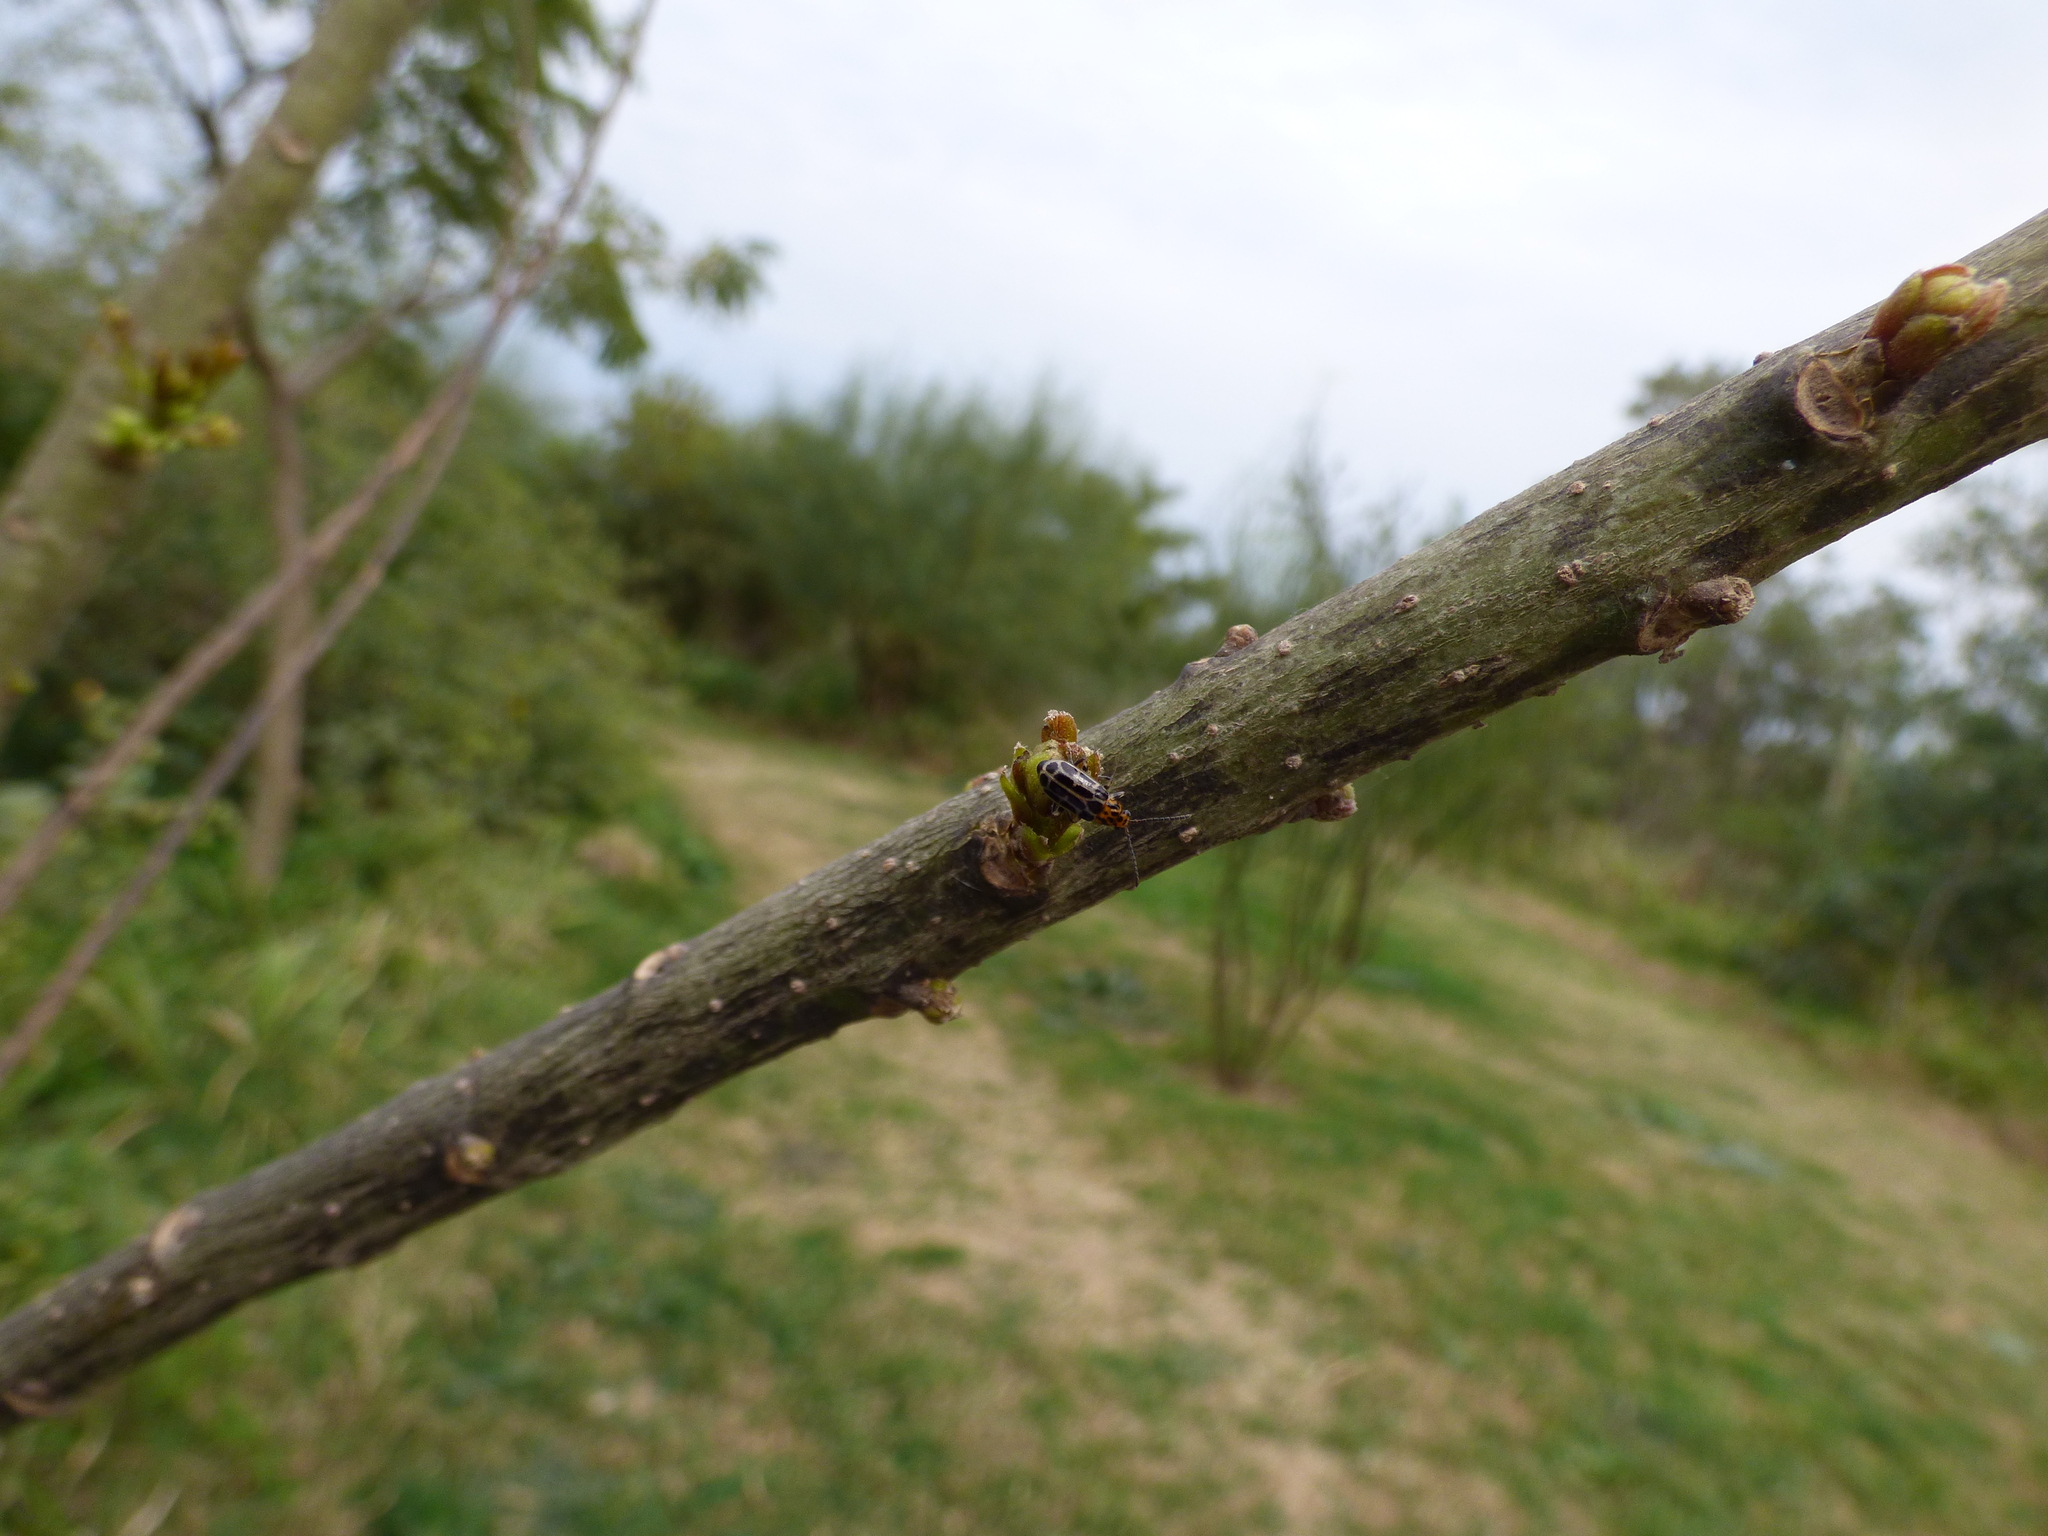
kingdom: Animalia
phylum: Arthropoda
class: Insecta
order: Coleoptera
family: Chrysomelidae
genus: Paranapiacaba
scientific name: Paranapiacaba significata
